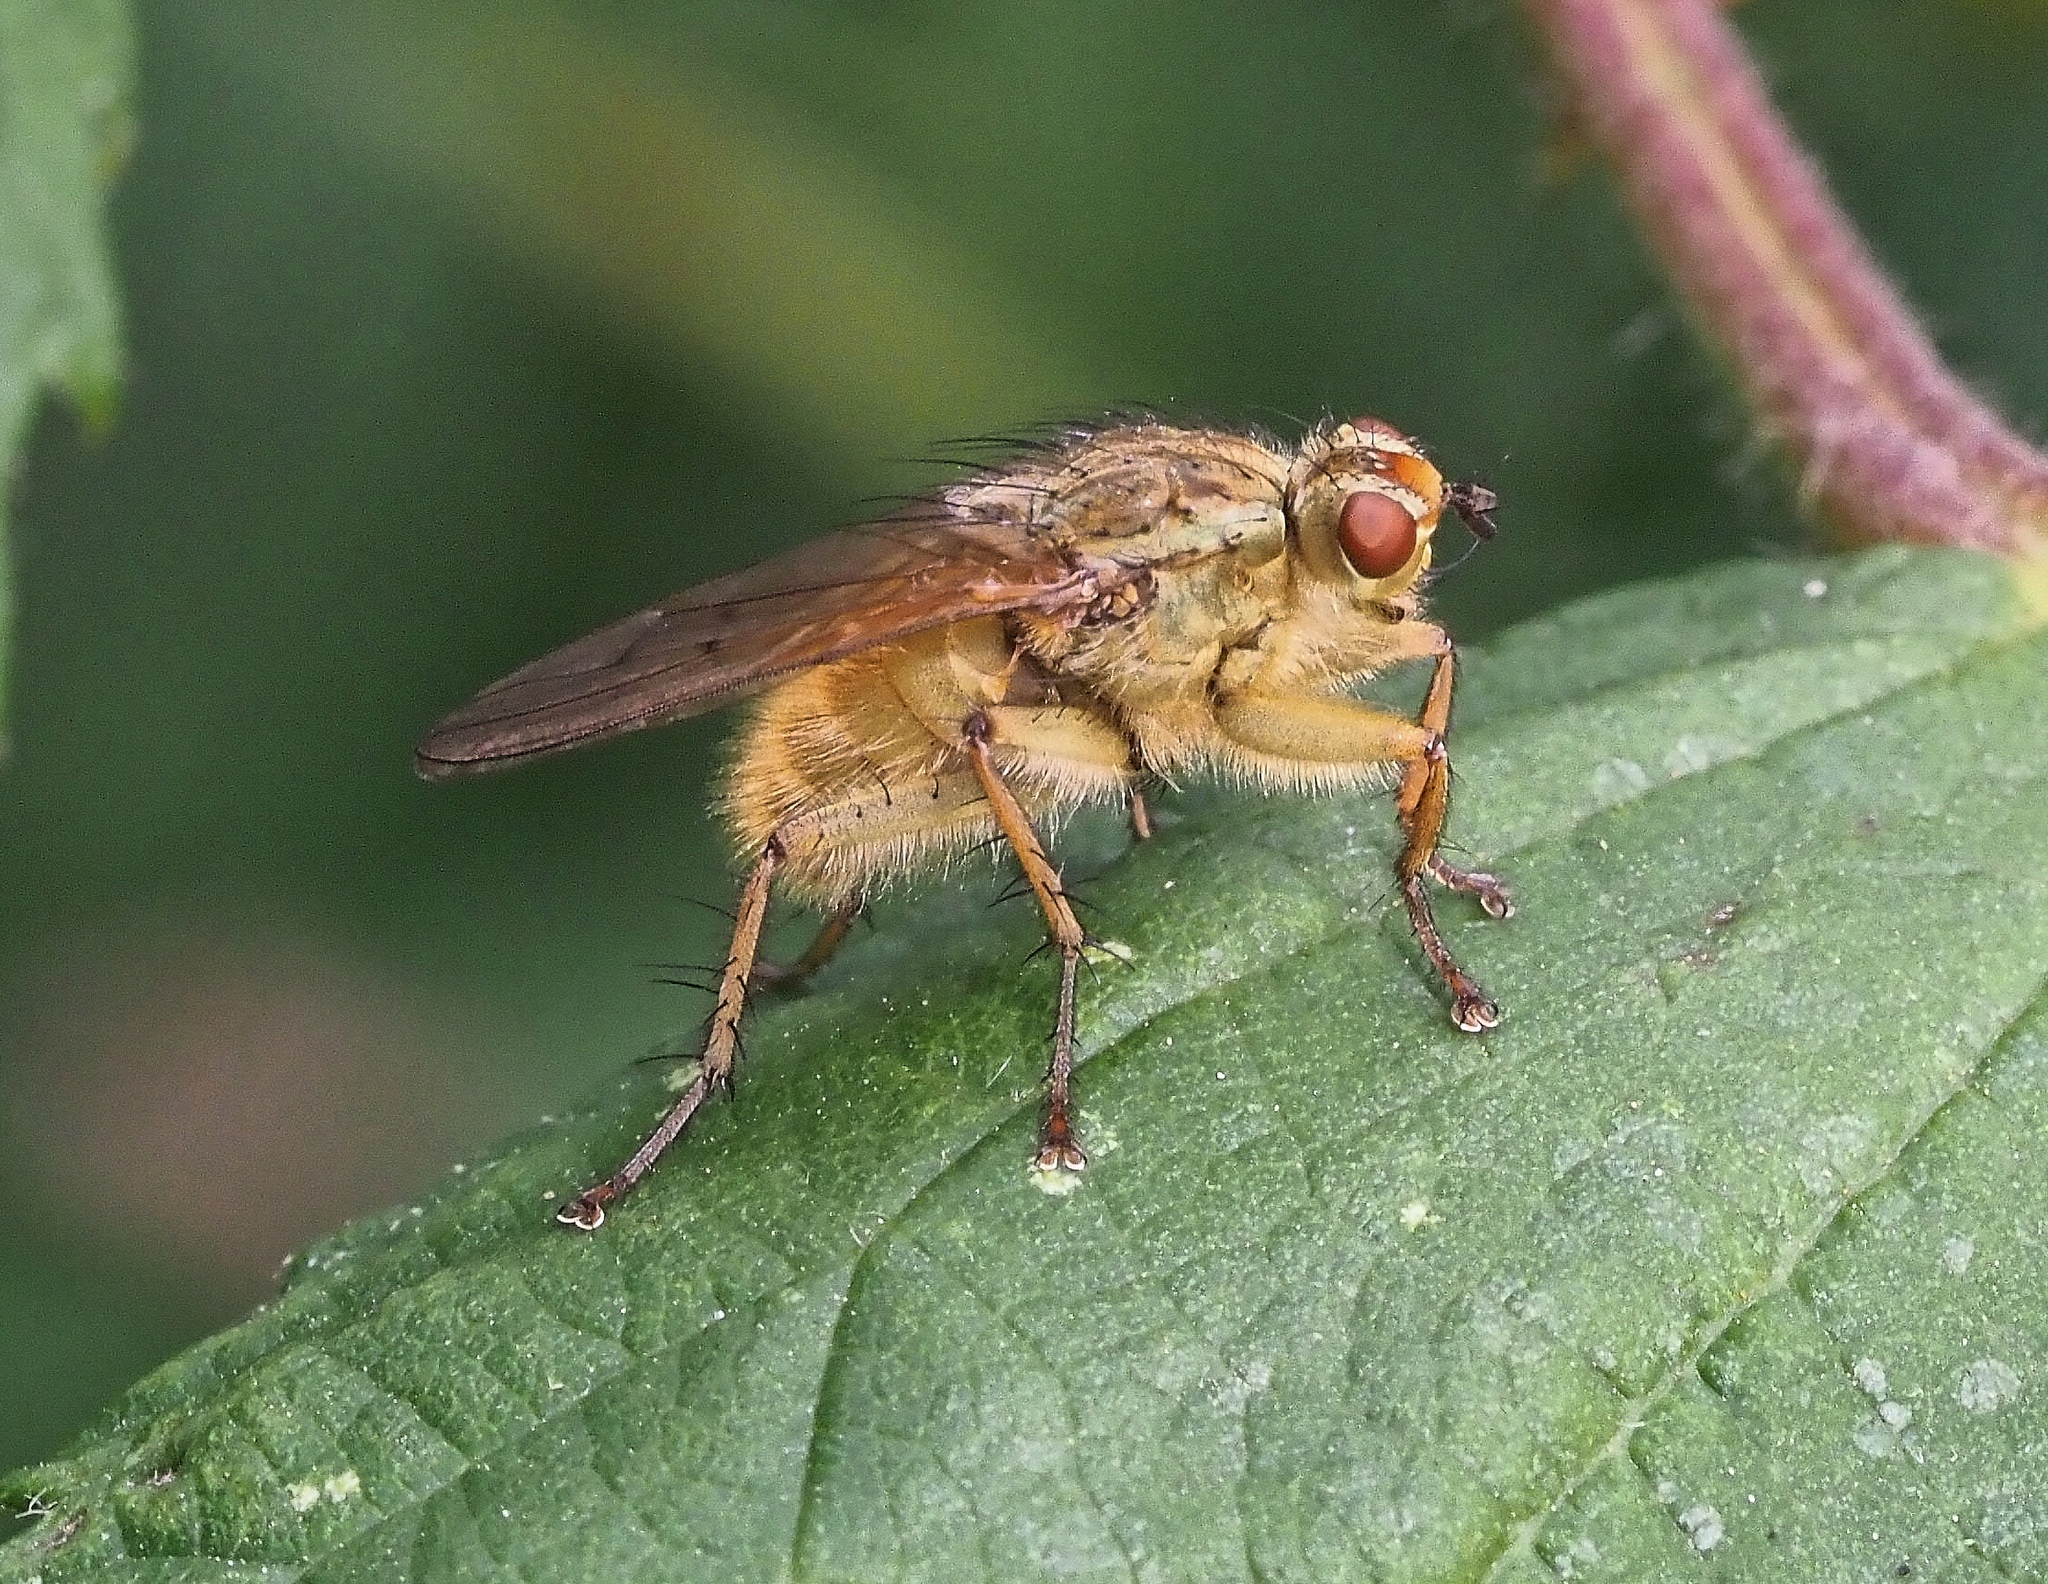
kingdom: Animalia
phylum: Arthropoda
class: Insecta
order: Diptera
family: Scathophagidae
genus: Scathophaga
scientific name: Scathophaga stercoraria
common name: Yellow dung fly
